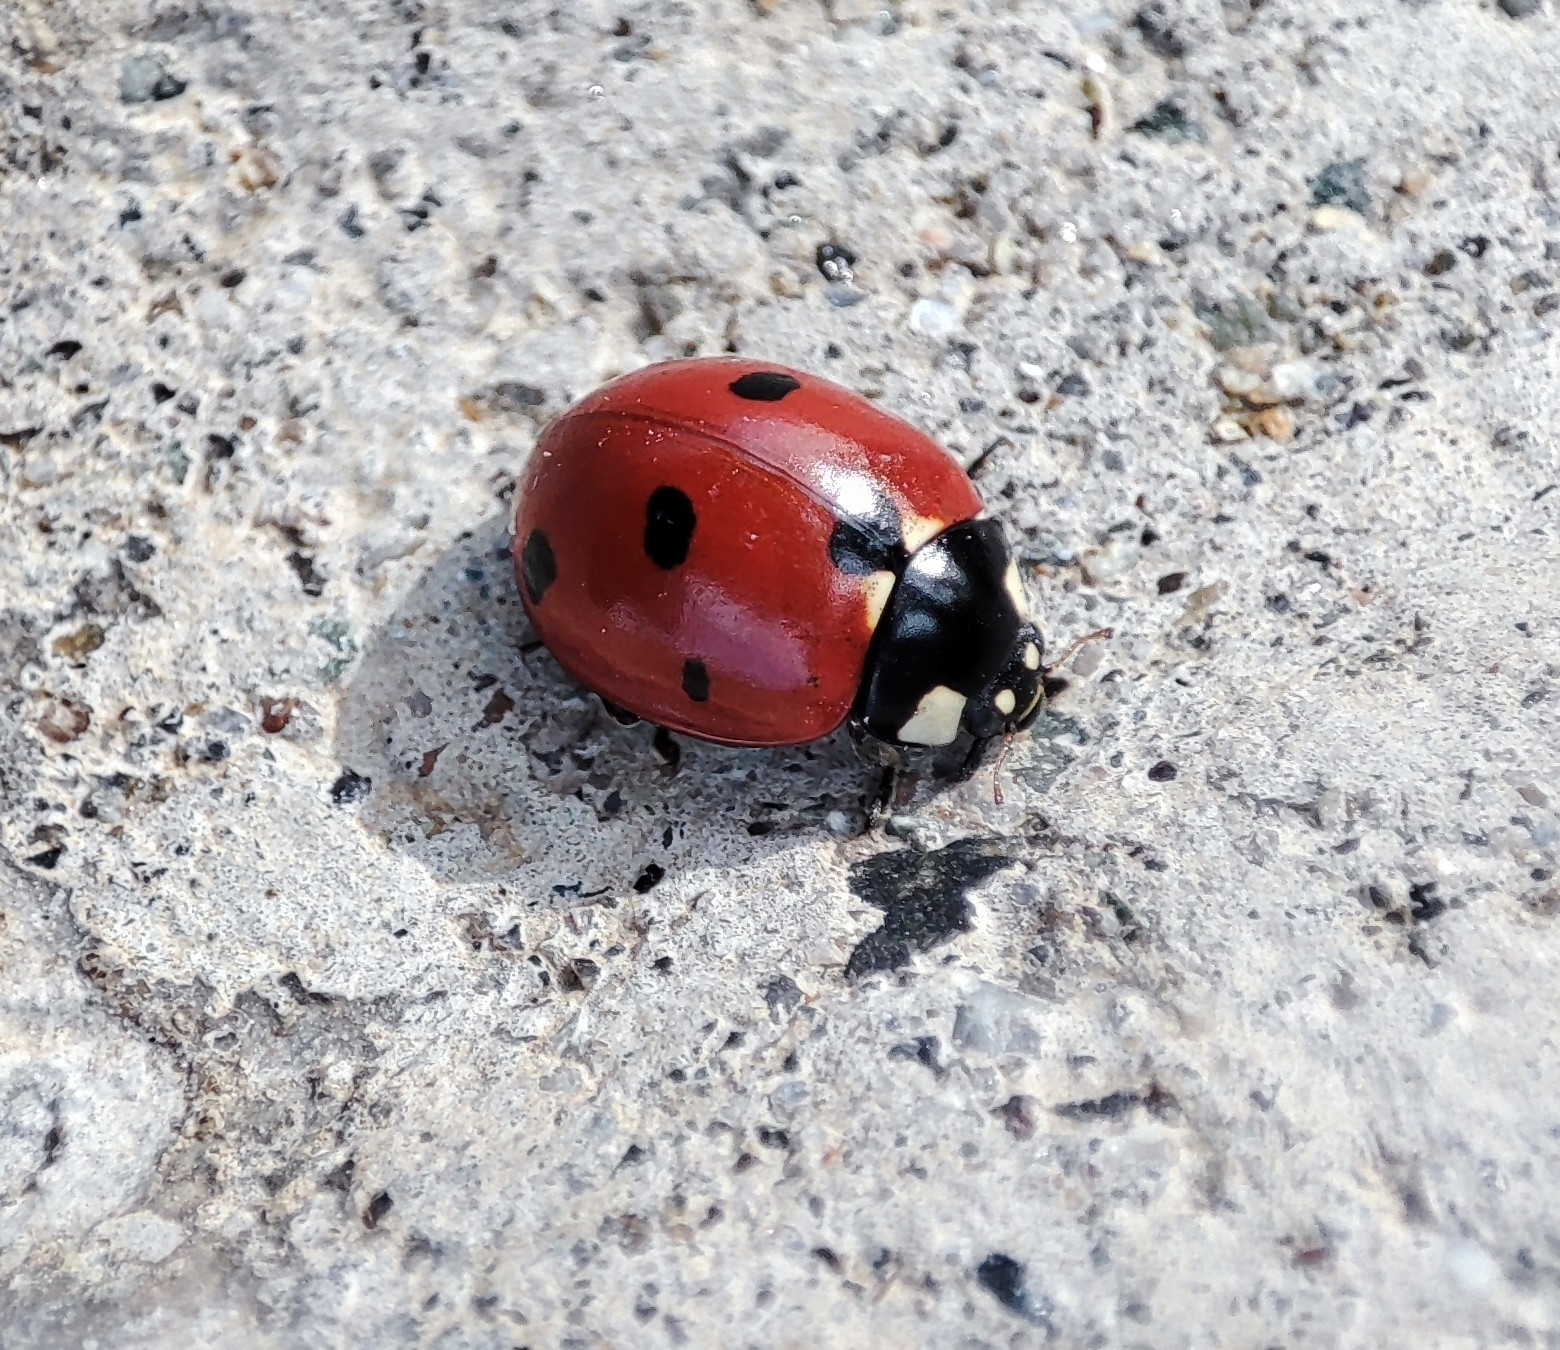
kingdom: Animalia
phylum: Arthropoda
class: Insecta
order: Coleoptera
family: Coccinellidae
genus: Coccinella
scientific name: Coccinella septempunctata
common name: Sevenspotted lady beetle
